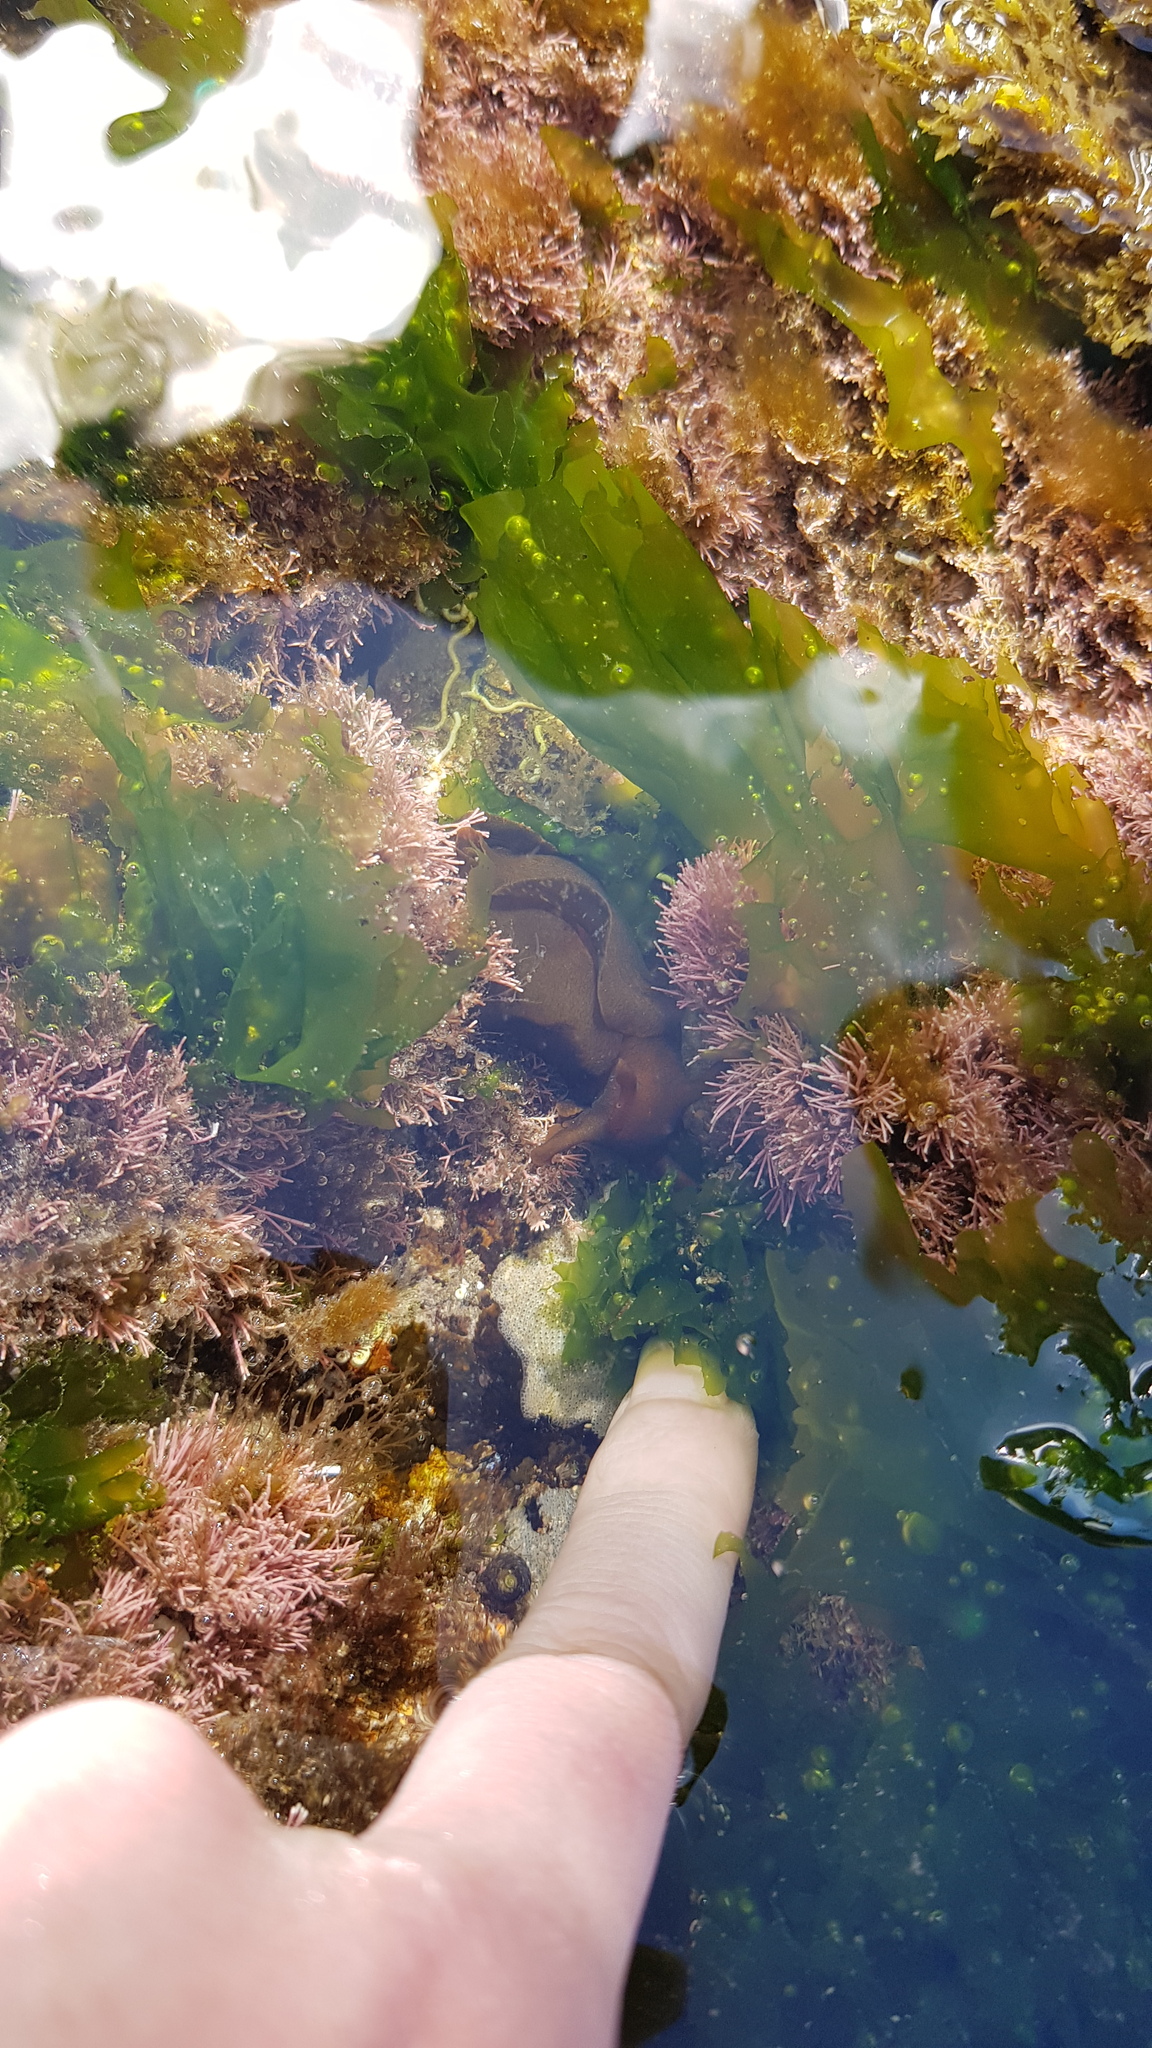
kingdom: Animalia
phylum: Mollusca
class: Gastropoda
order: Aplysiida
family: Aplysiidae
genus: Aplysia
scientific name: Aplysia juliana
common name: Walking sea hare
